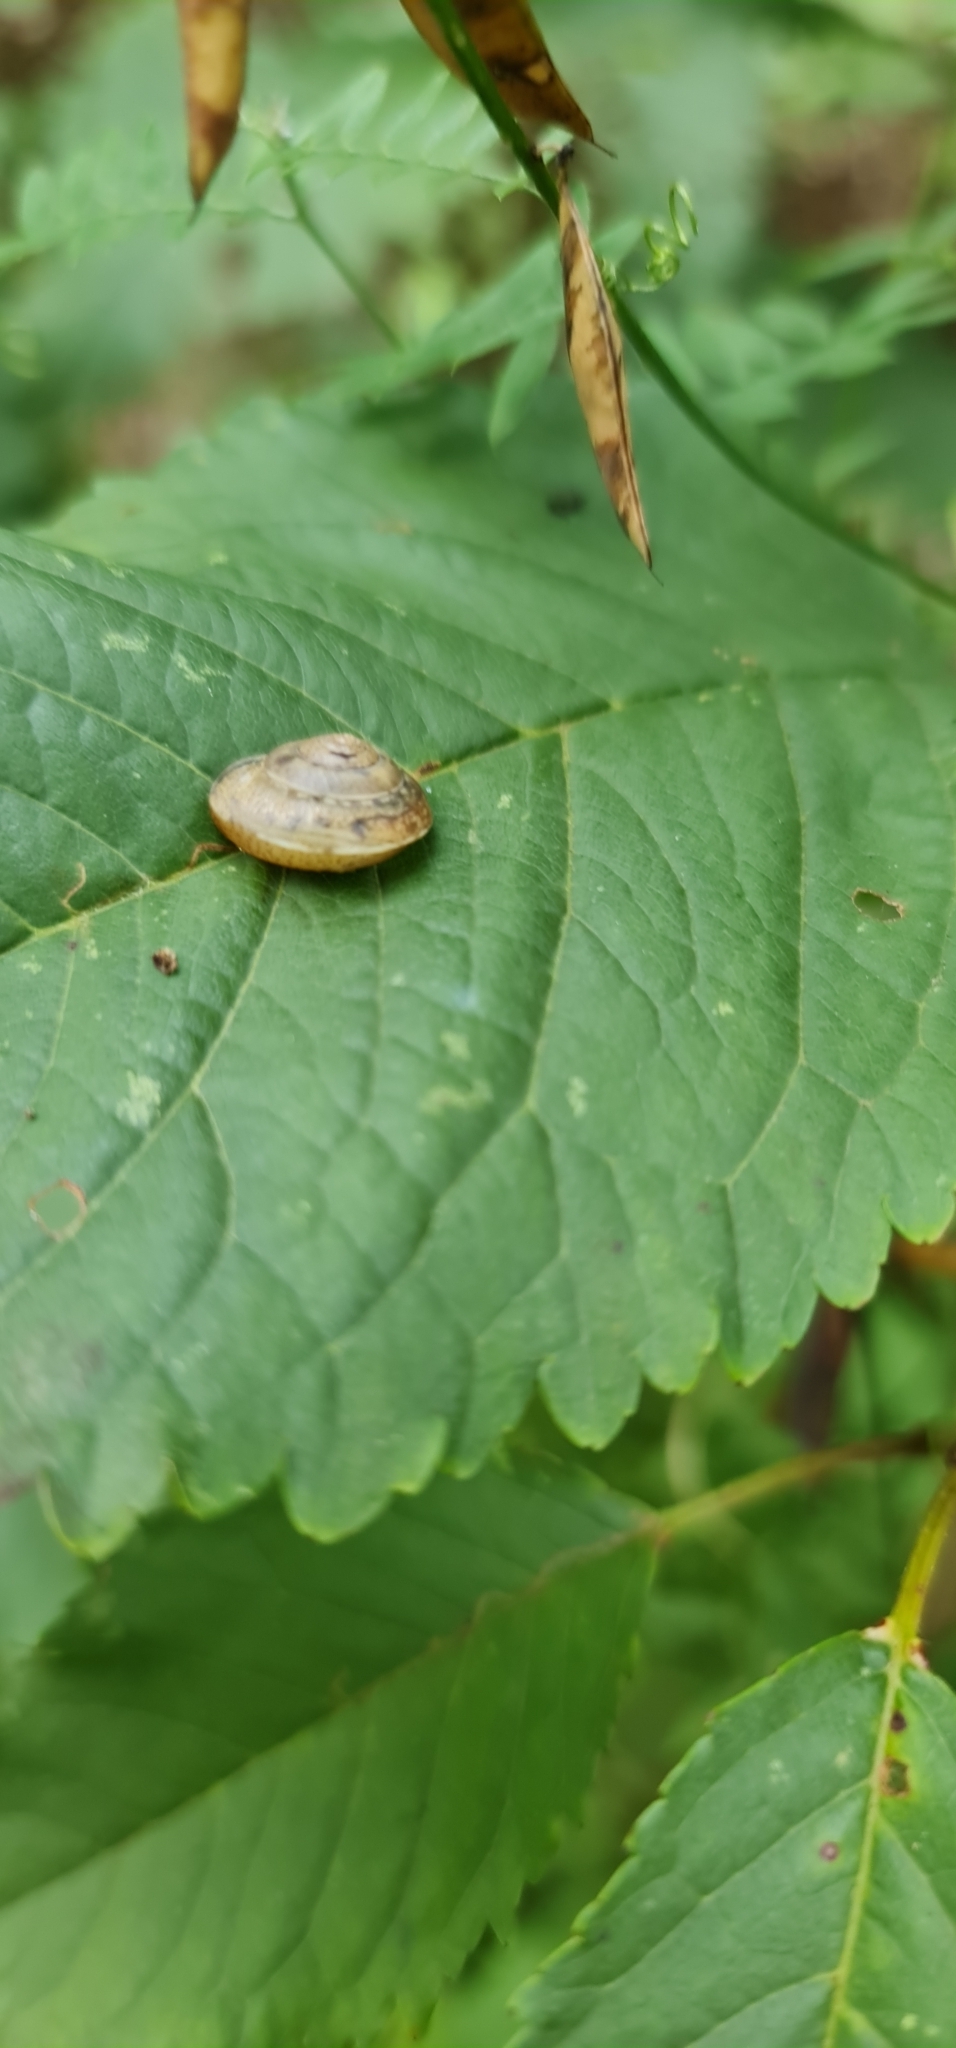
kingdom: Animalia
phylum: Mollusca
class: Gastropoda
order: Stylommatophora
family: Hygromiidae
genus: Hygromia
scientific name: Hygromia cinctella
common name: Girdled snail
